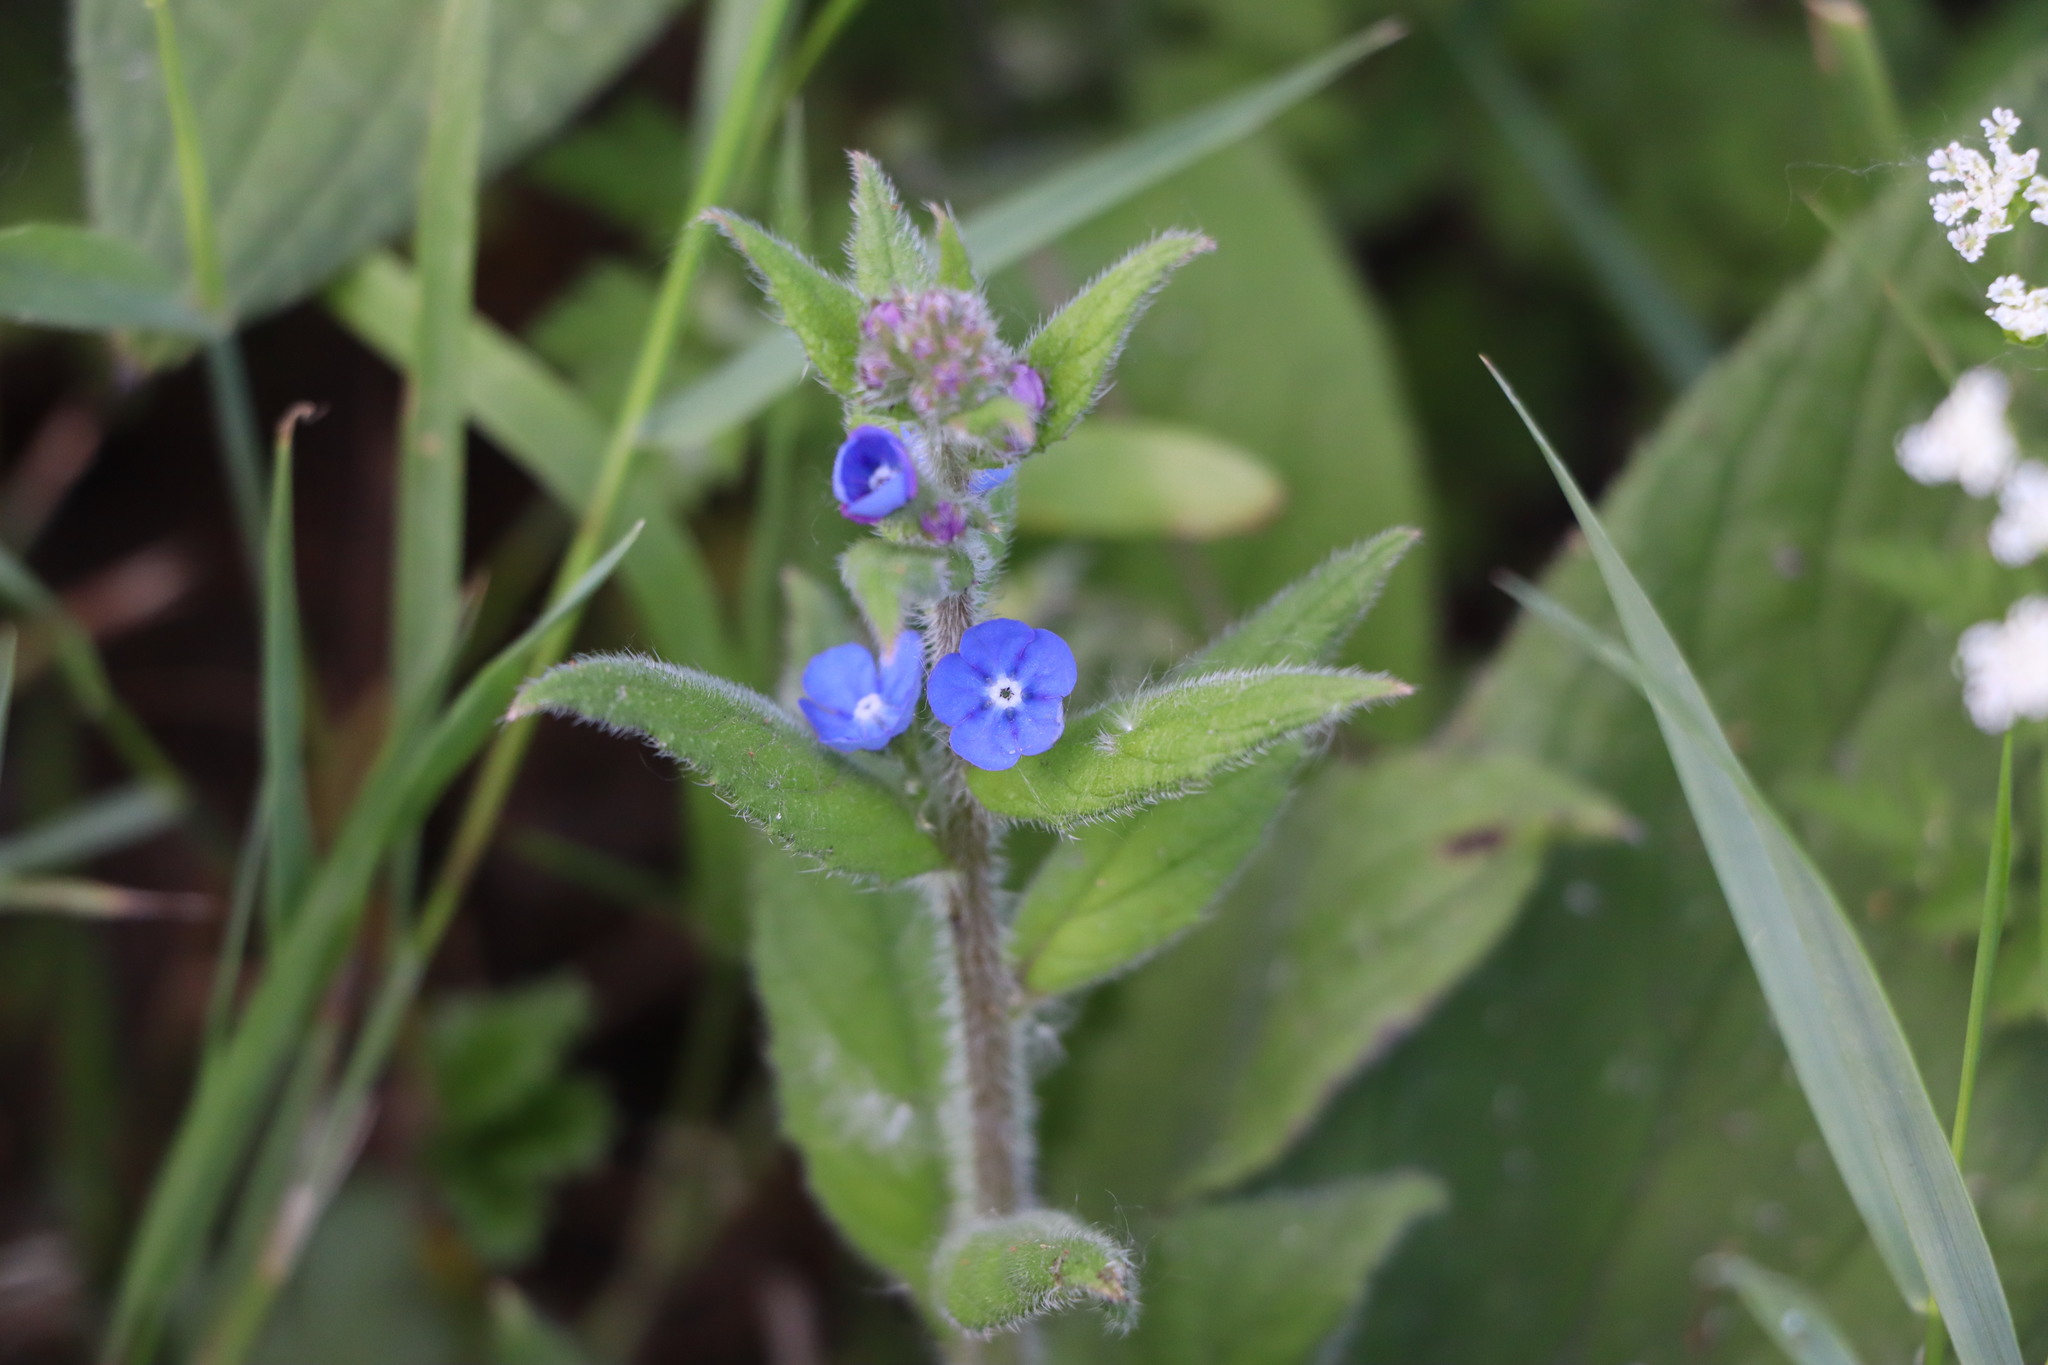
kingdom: Plantae
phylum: Tracheophyta
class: Magnoliopsida
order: Boraginales
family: Boraginaceae
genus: Pentaglottis
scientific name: Pentaglottis sempervirens
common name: Green alkanet
